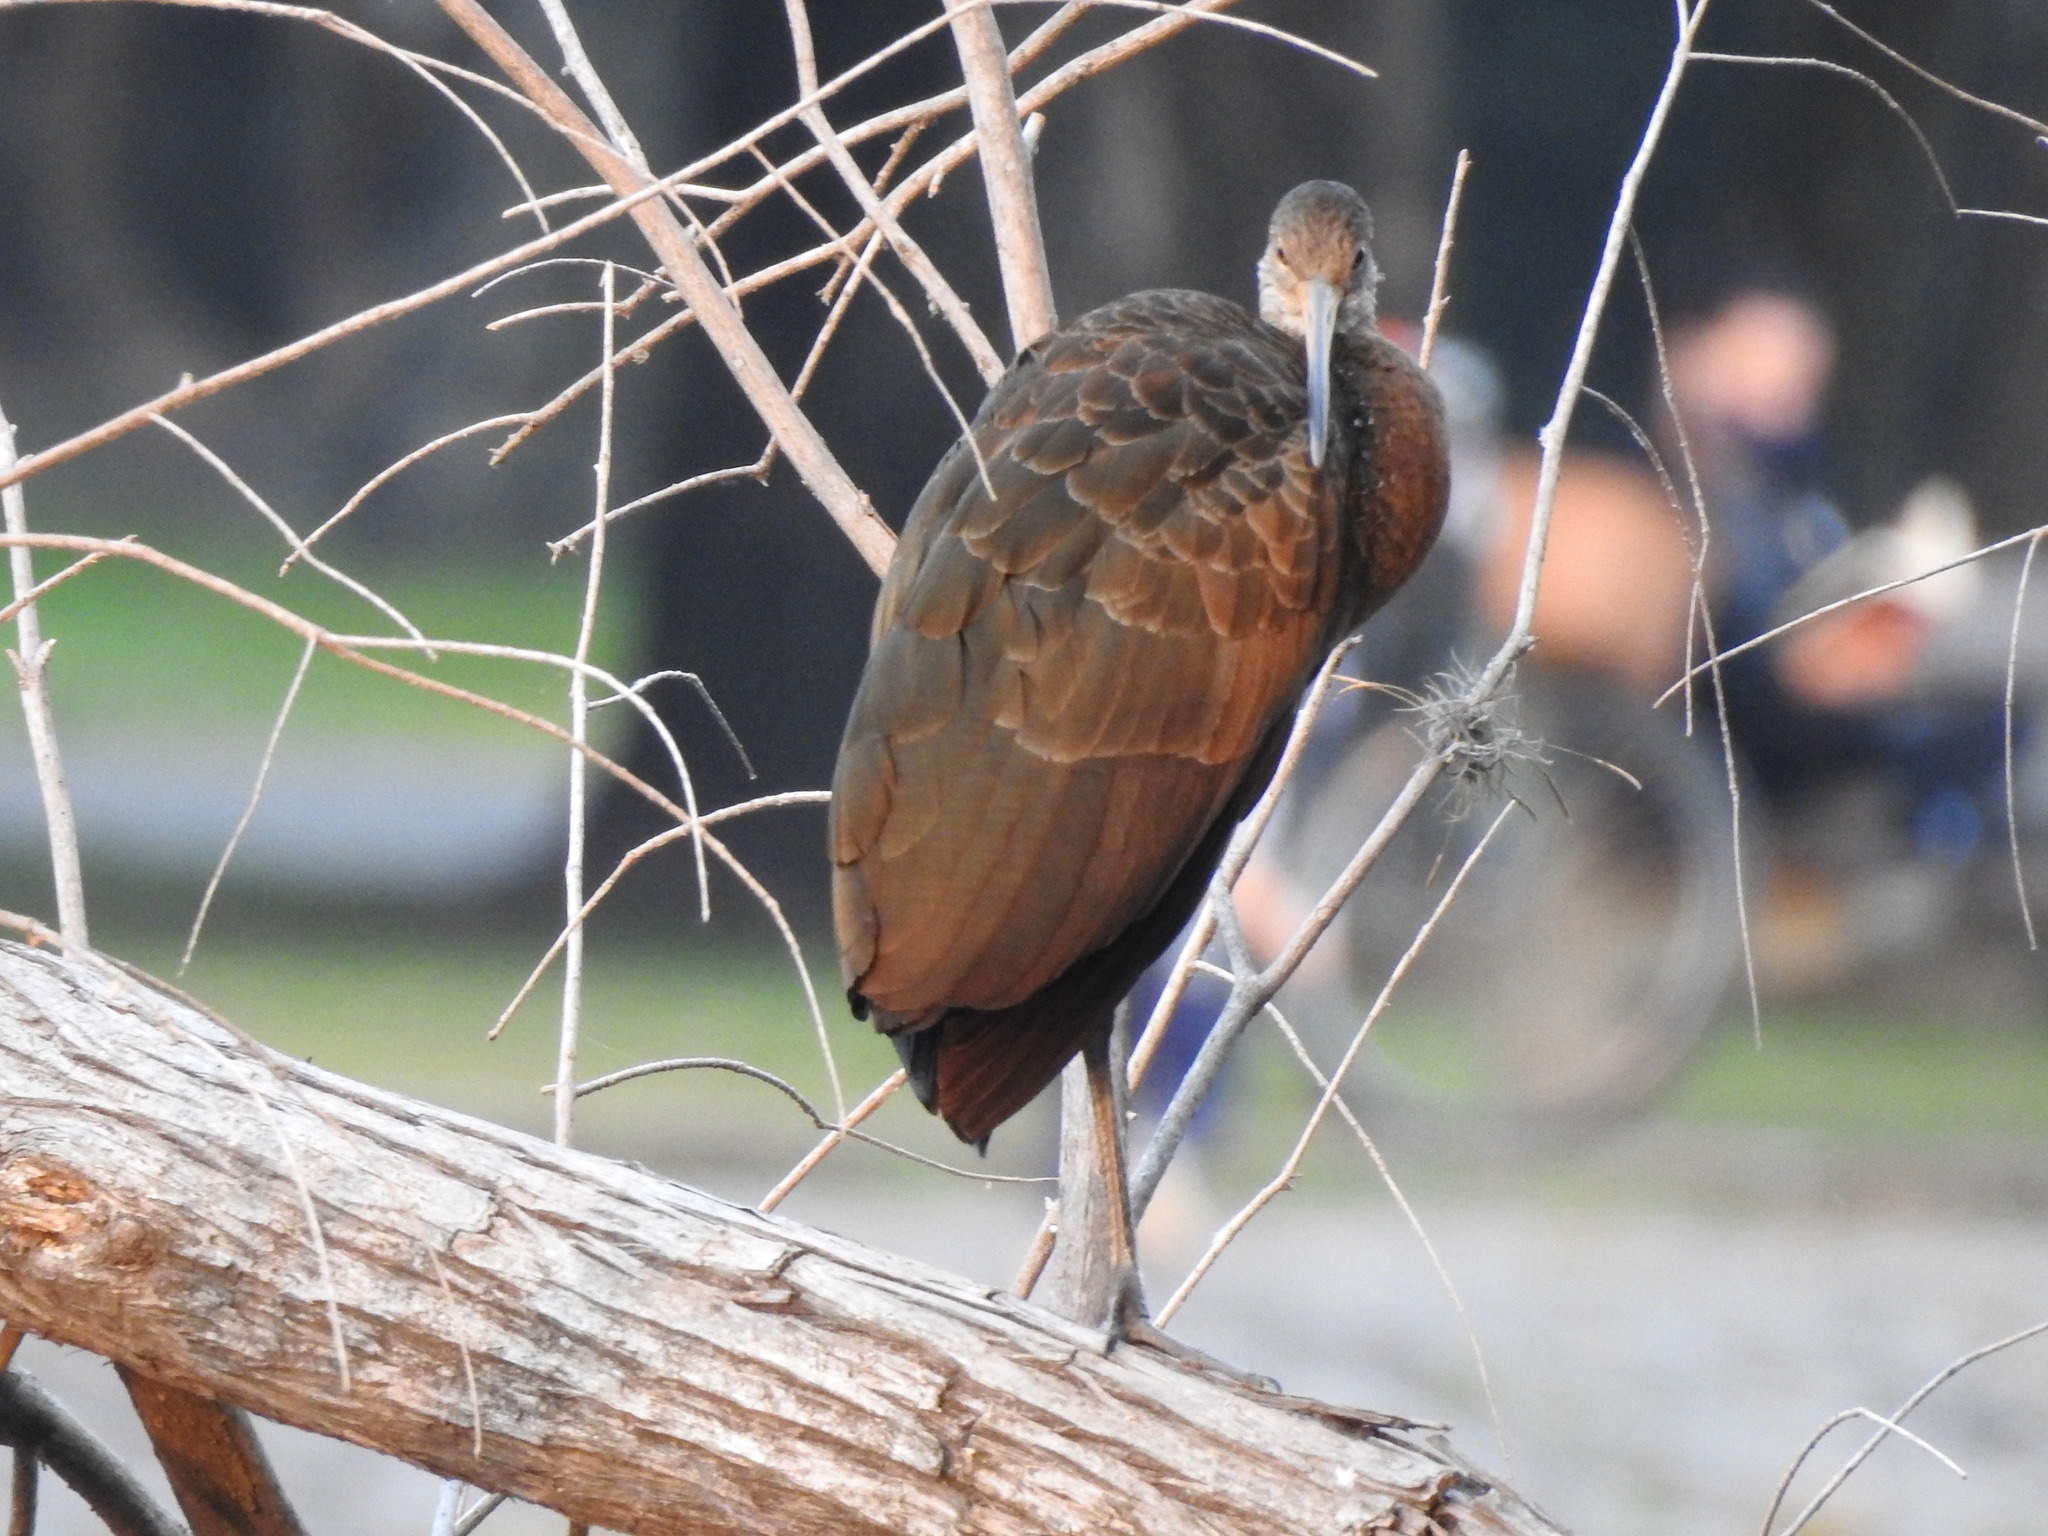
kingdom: Animalia
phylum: Chordata
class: Aves
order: Gruiformes
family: Aramidae
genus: Aramus
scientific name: Aramus guarauna
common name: Limpkin
